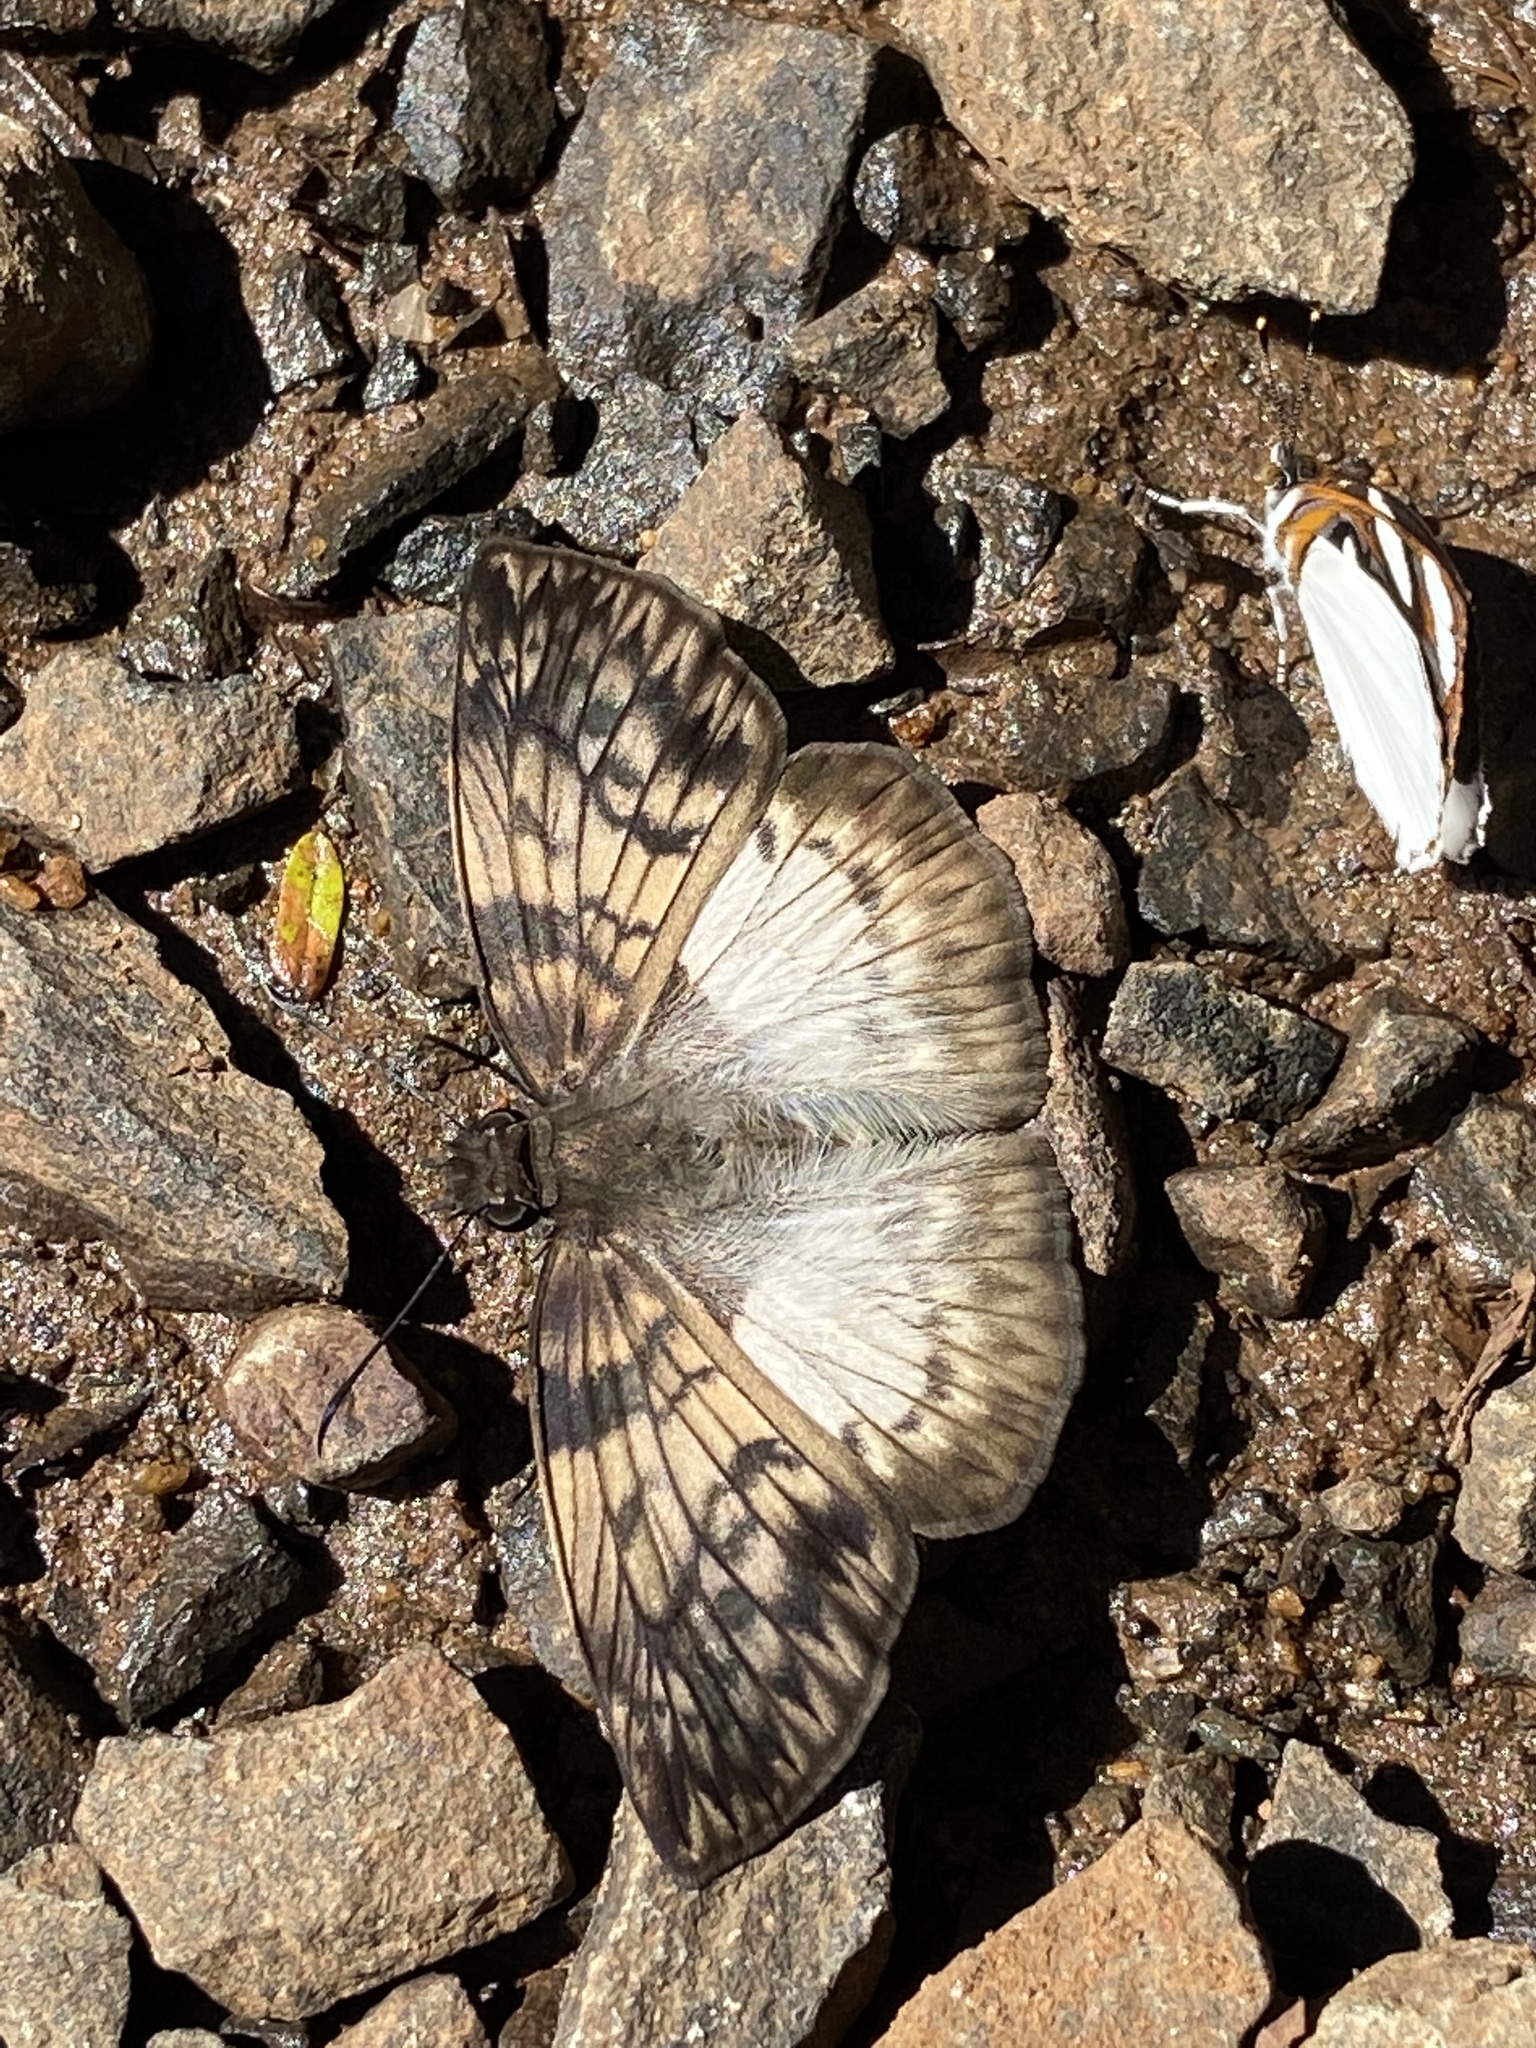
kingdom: Animalia
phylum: Arthropoda
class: Insecta
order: Lepidoptera
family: Hesperiidae
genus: Mylon
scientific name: Mylon maimon
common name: Common mylon
